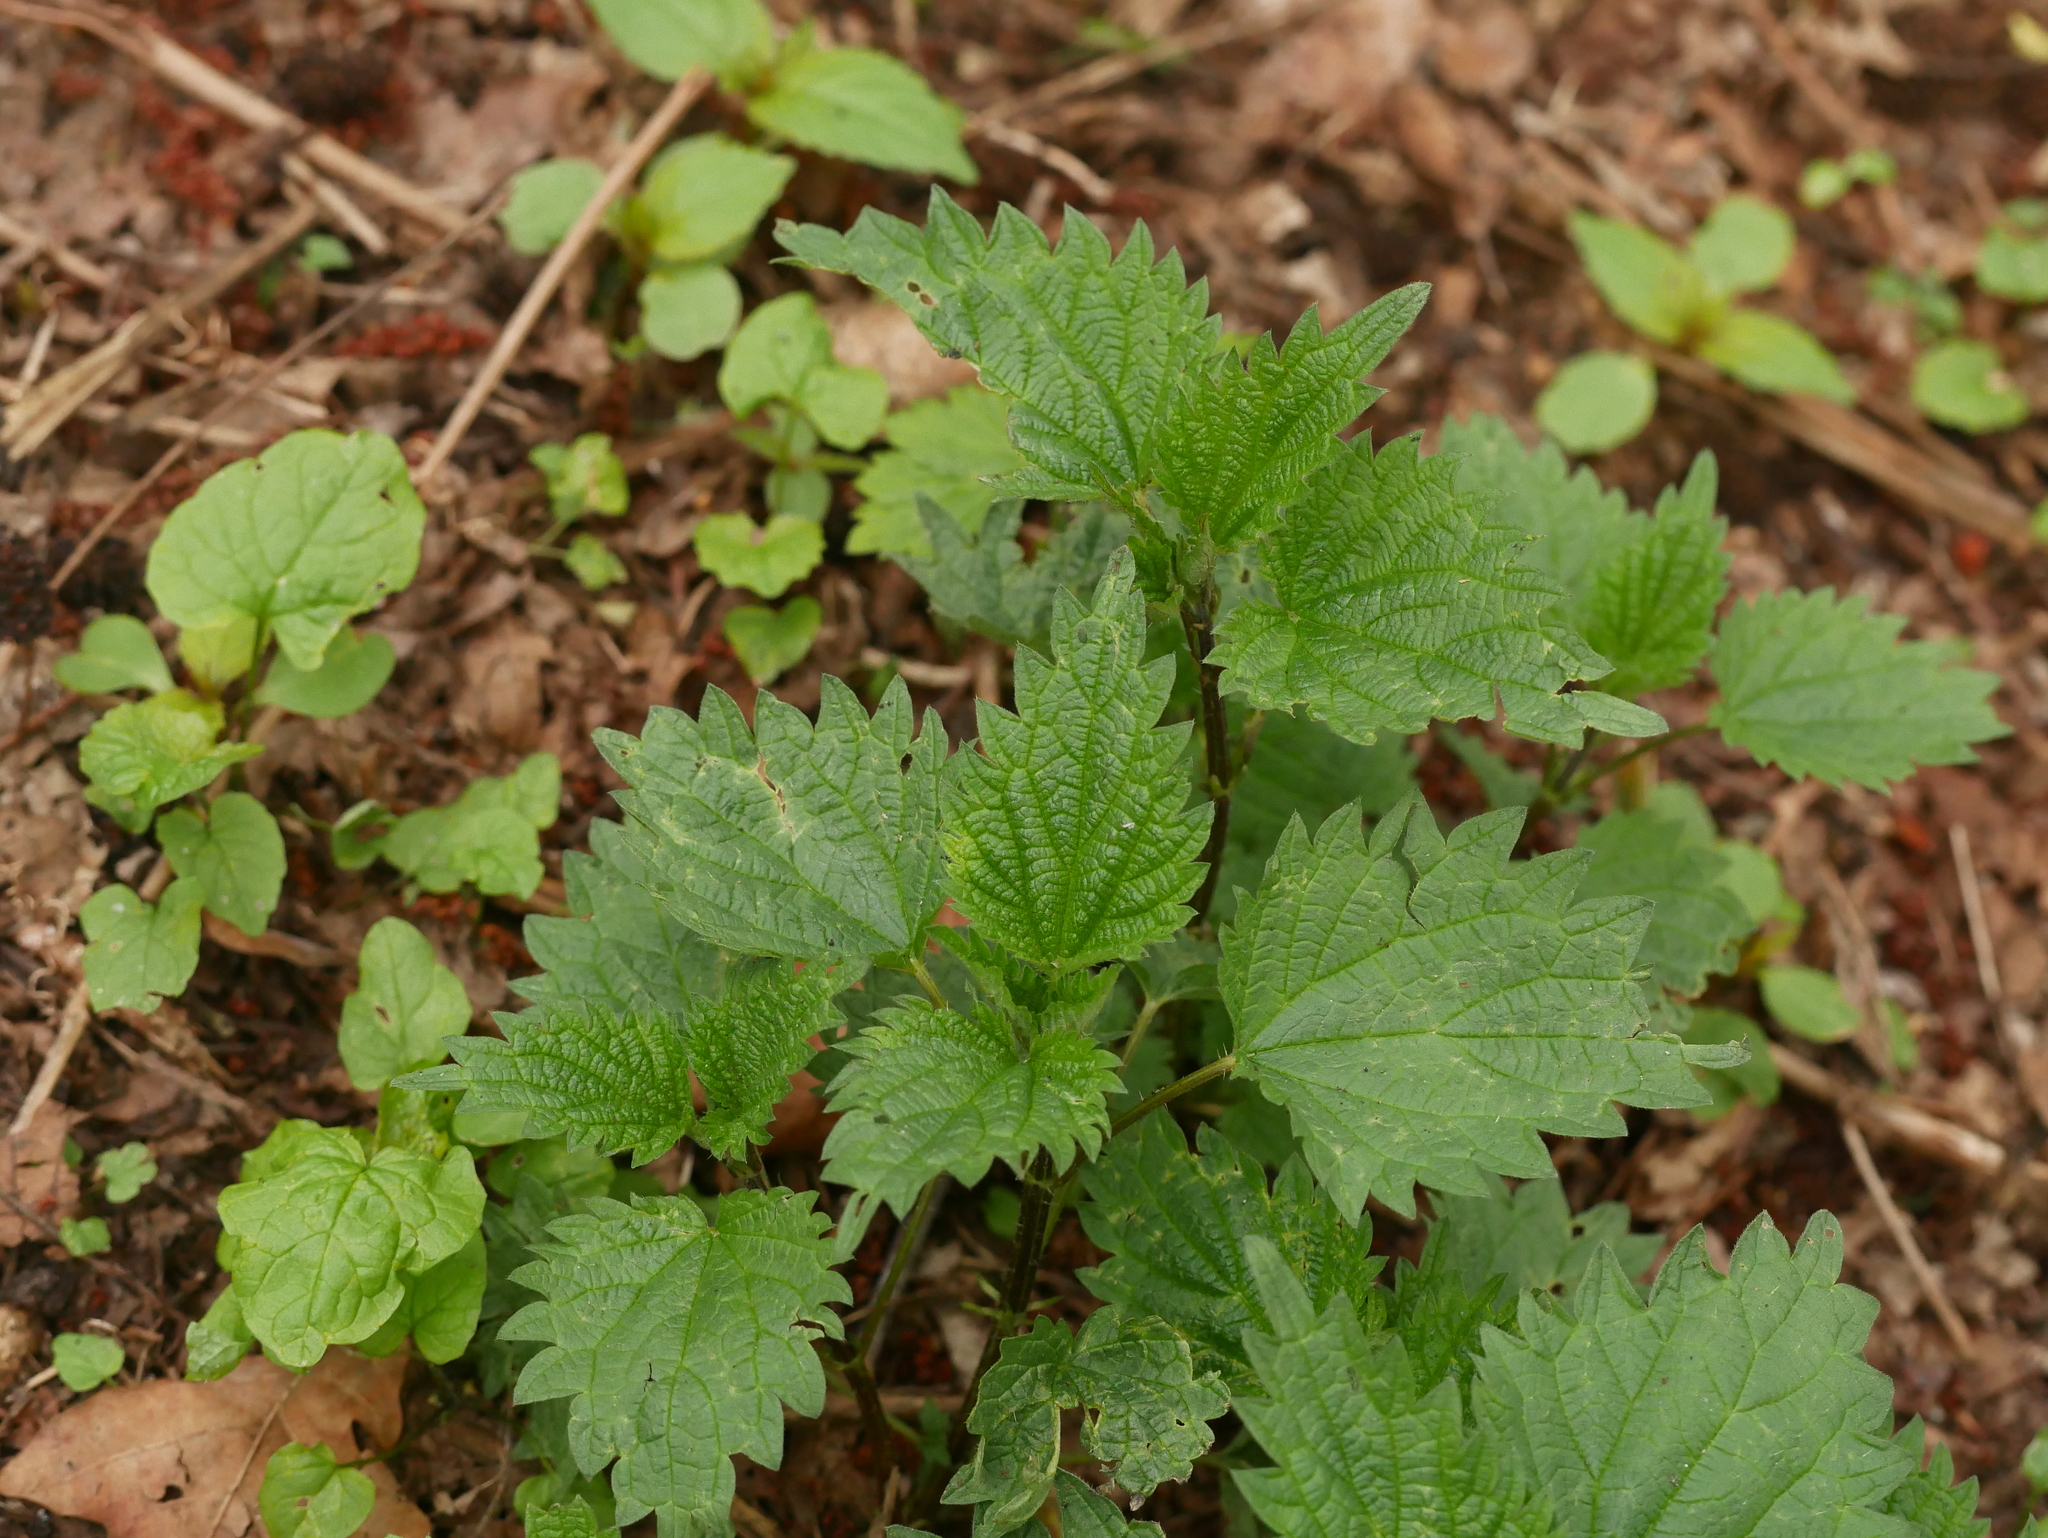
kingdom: Plantae
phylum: Tracheophyta
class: Magnoliopsida
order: Rosales
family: Urticaceae
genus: Urtica
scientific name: Urtica dioica
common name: Common nettle
